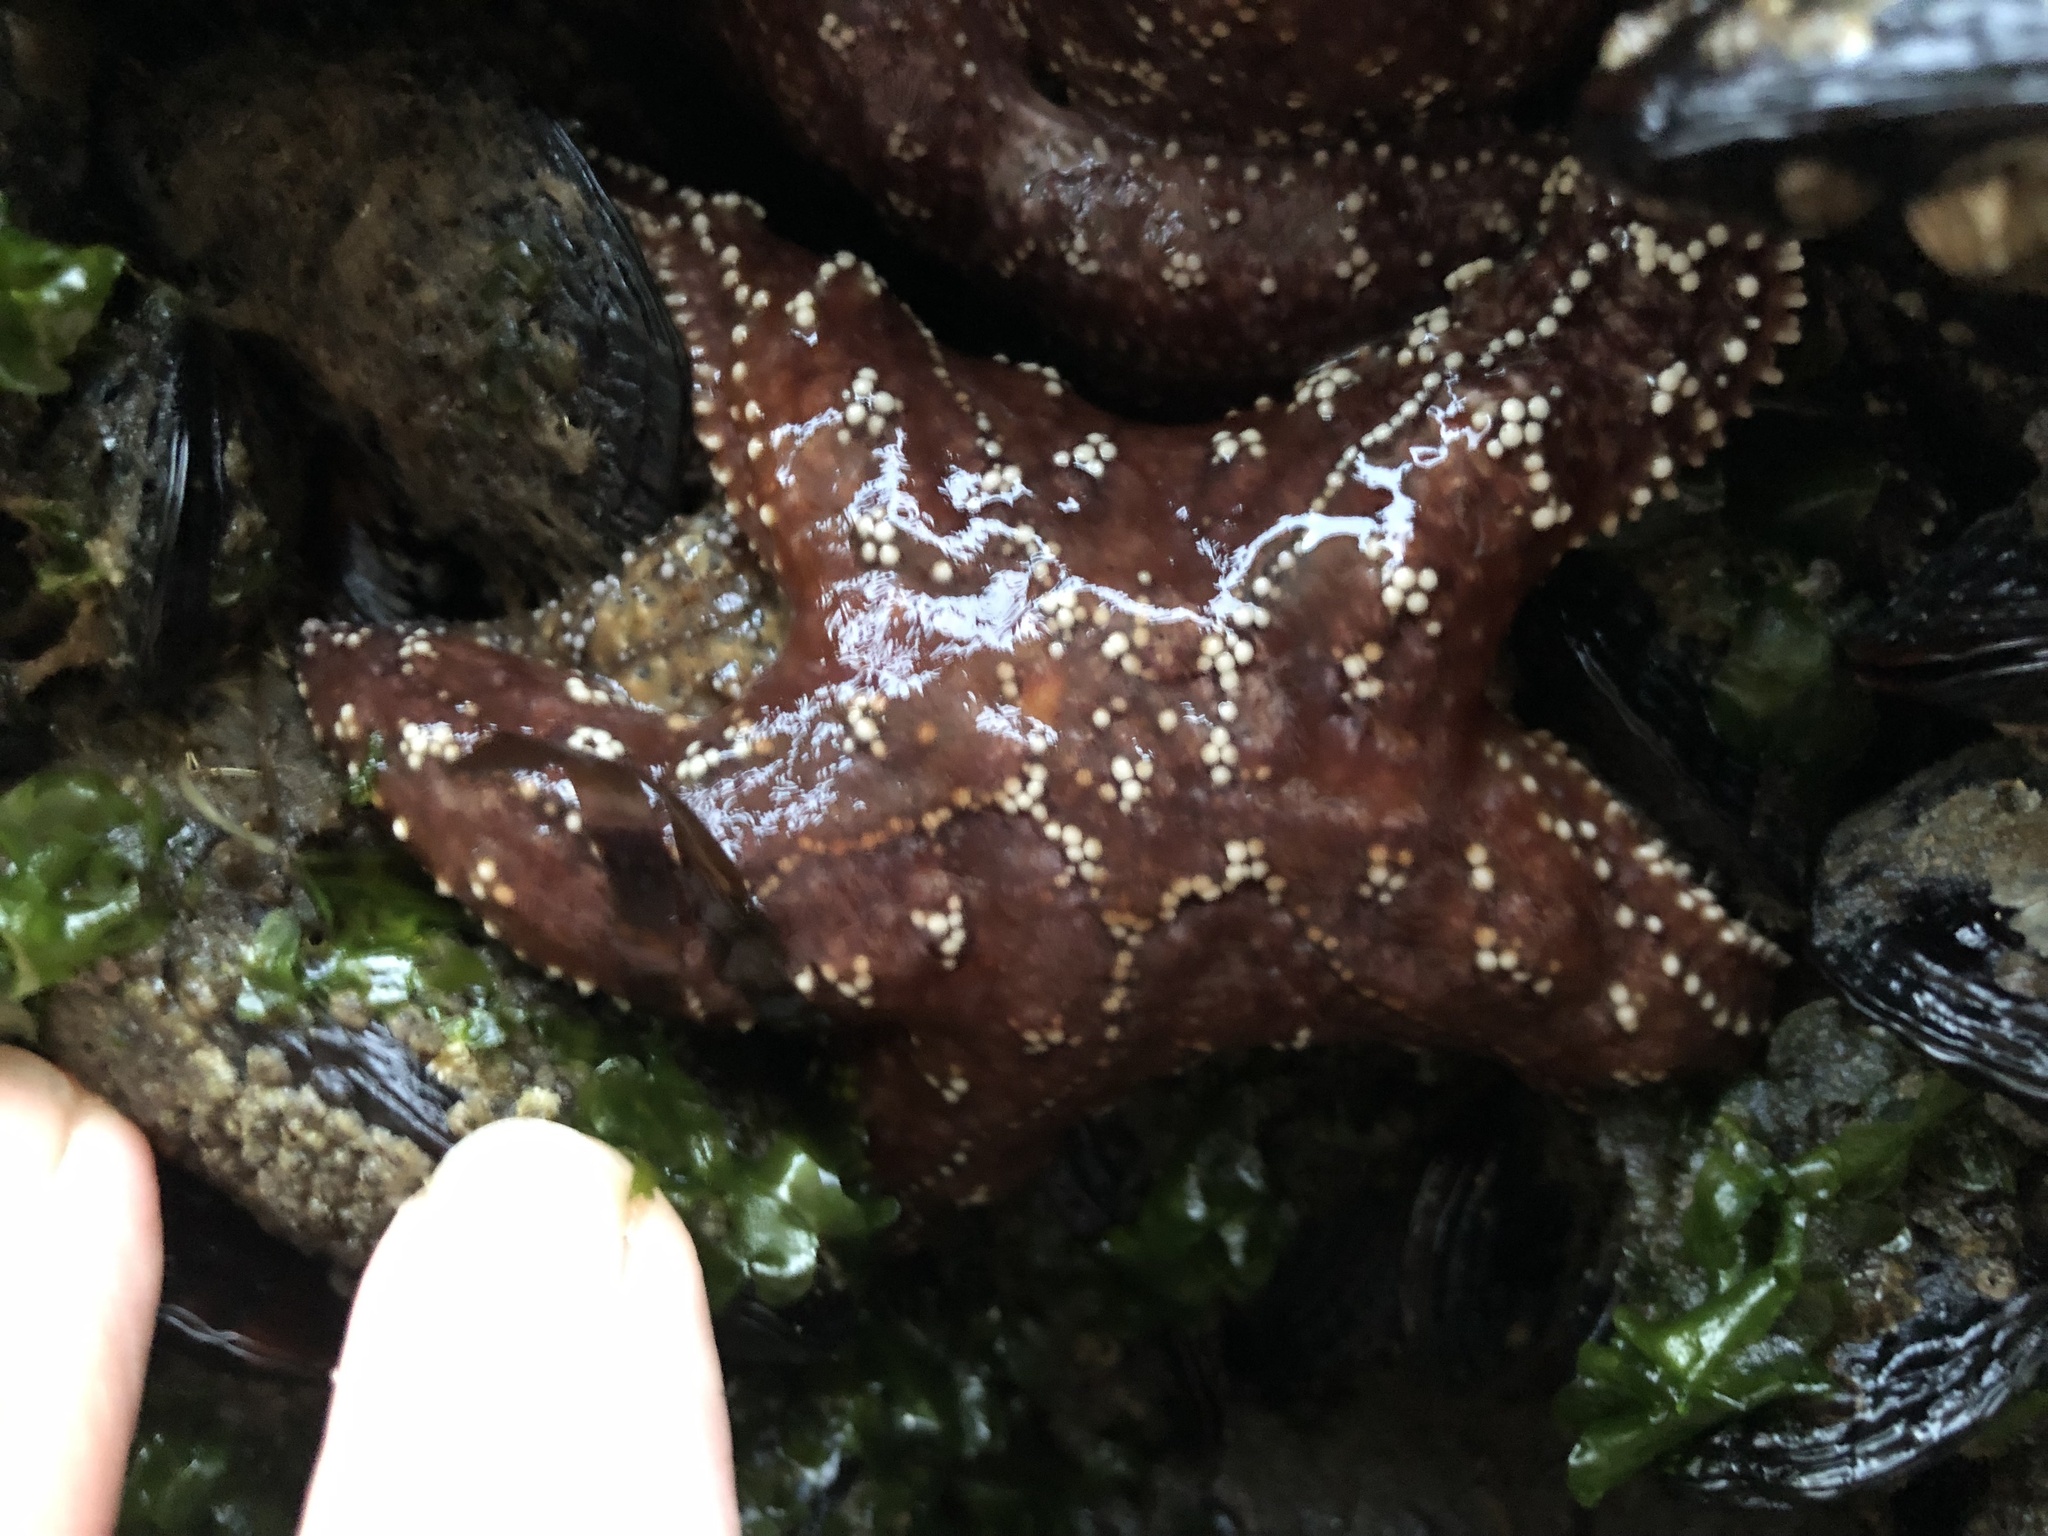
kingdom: Animalia
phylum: Echinodermata
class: Asteroidea
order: Forcipulatida
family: Asteriidae
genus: Pisaster
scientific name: Pisaster ochraceus
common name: Ochre stars
